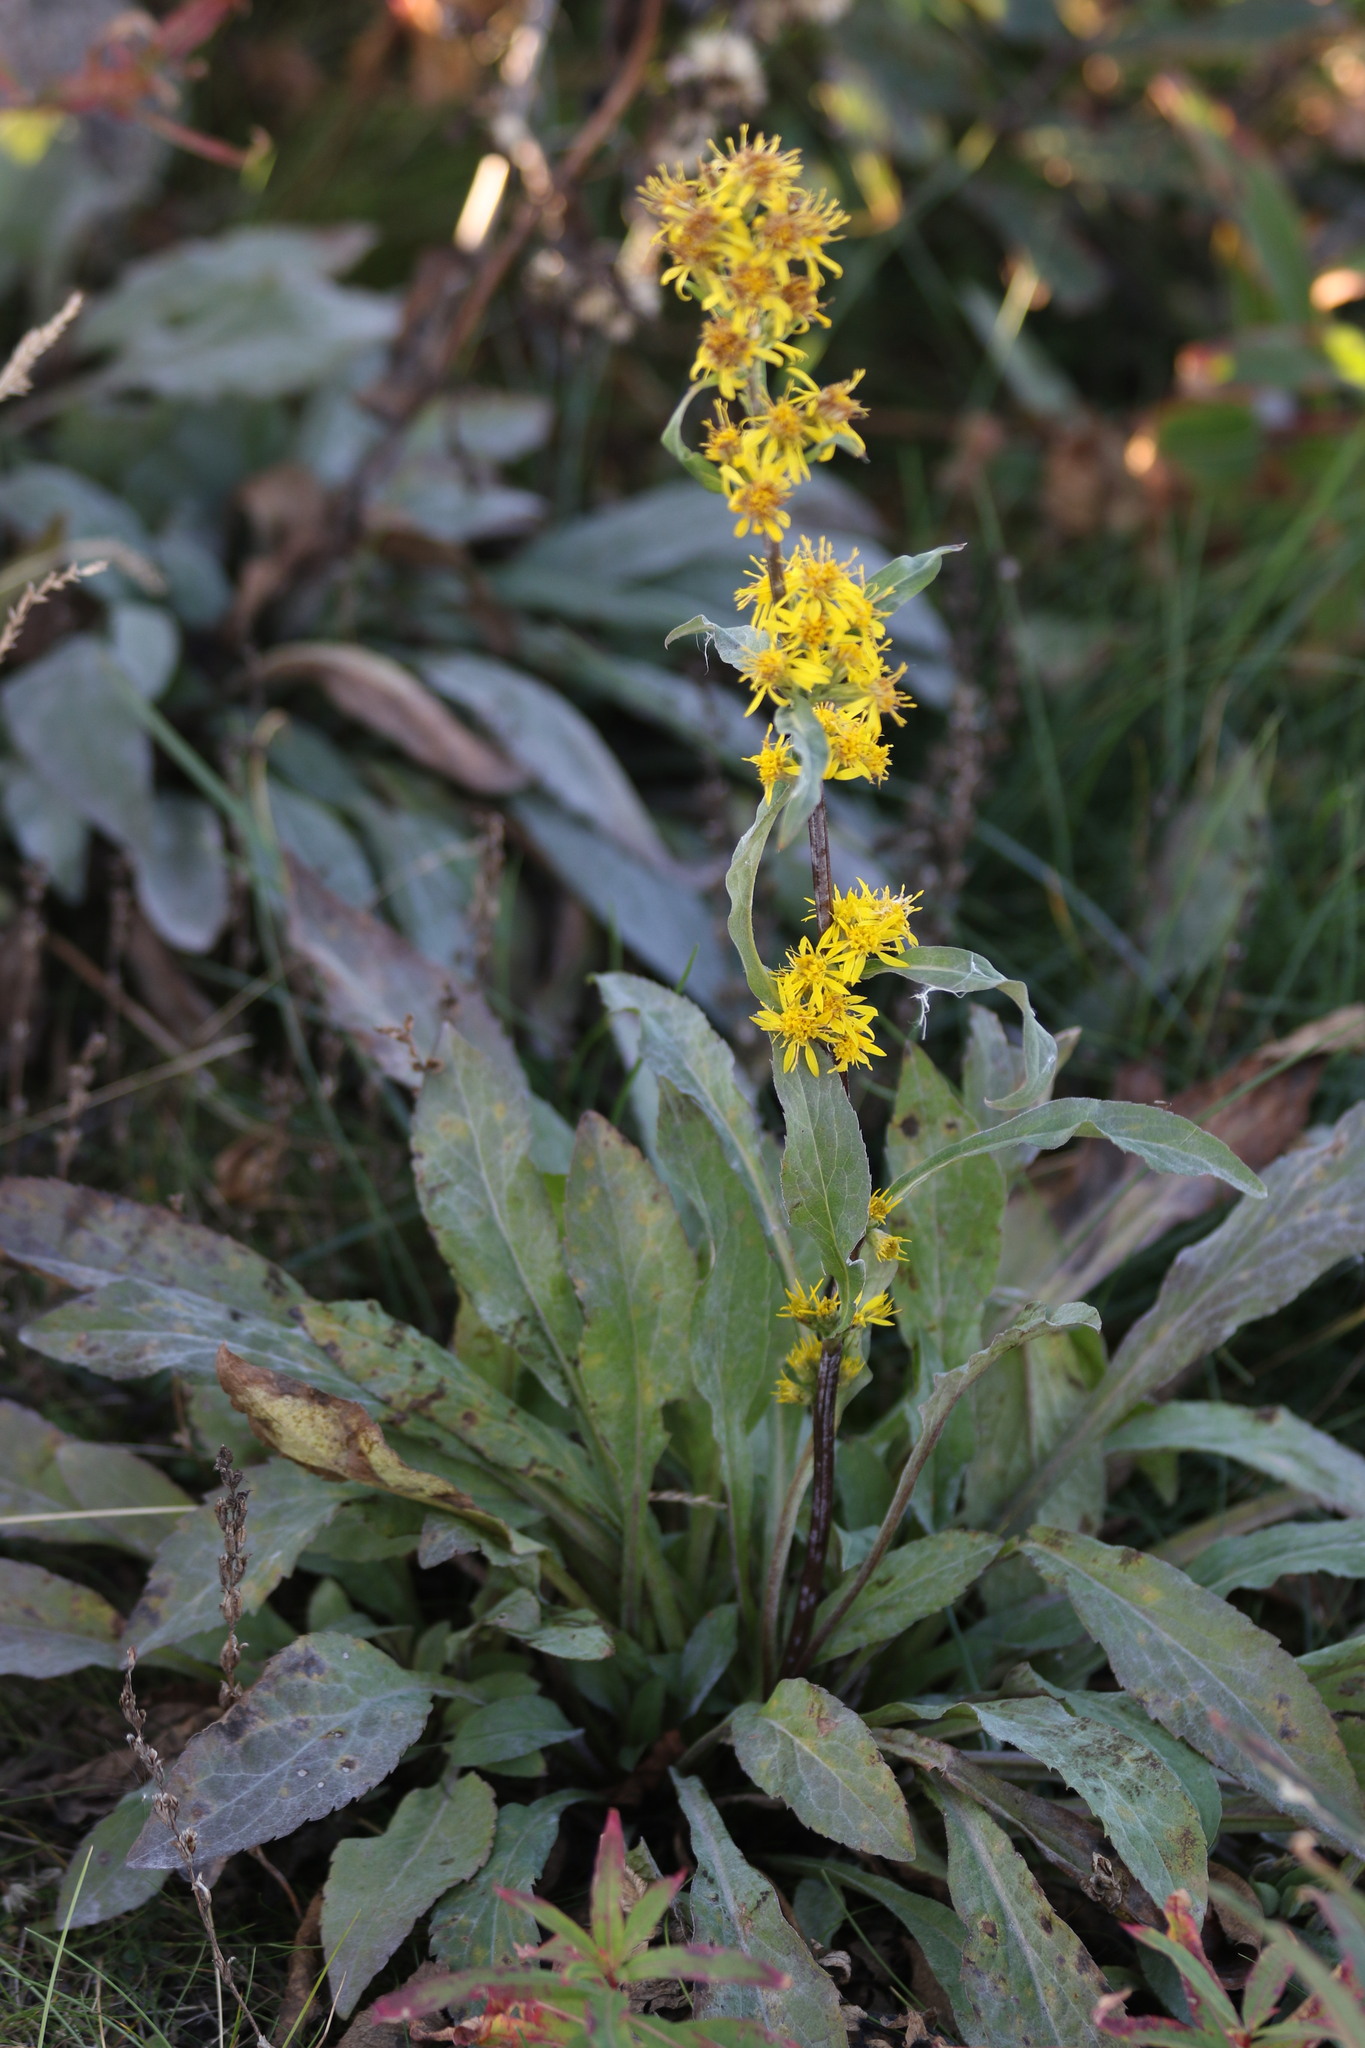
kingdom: Plantae
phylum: Tracheophyta
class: Magnoliopsida
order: Asterales
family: Asteraceae
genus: Solidago
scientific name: Solidago virgaurea
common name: Goldenrod
